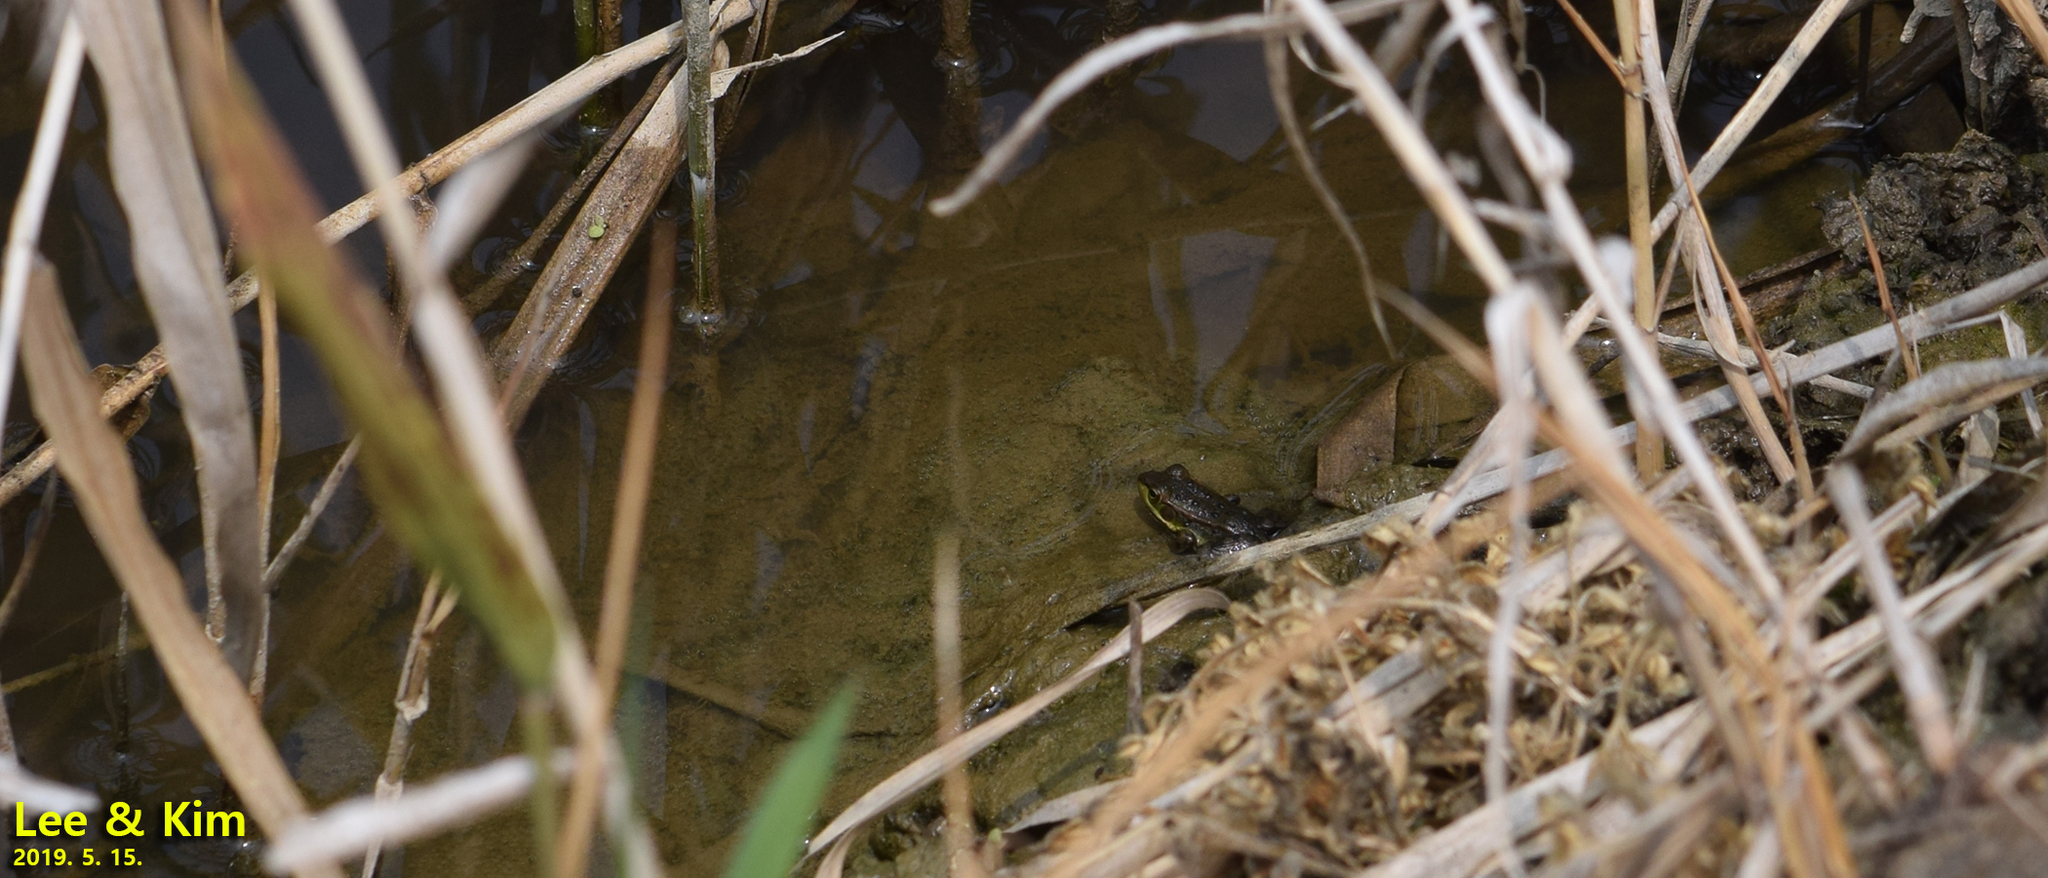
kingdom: Animalia
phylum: Chordata
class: Amphibia
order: Anura
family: Ranidae
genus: Pelophylax
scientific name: Pelophylax chosenicus
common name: Gold-spotted pond frog
